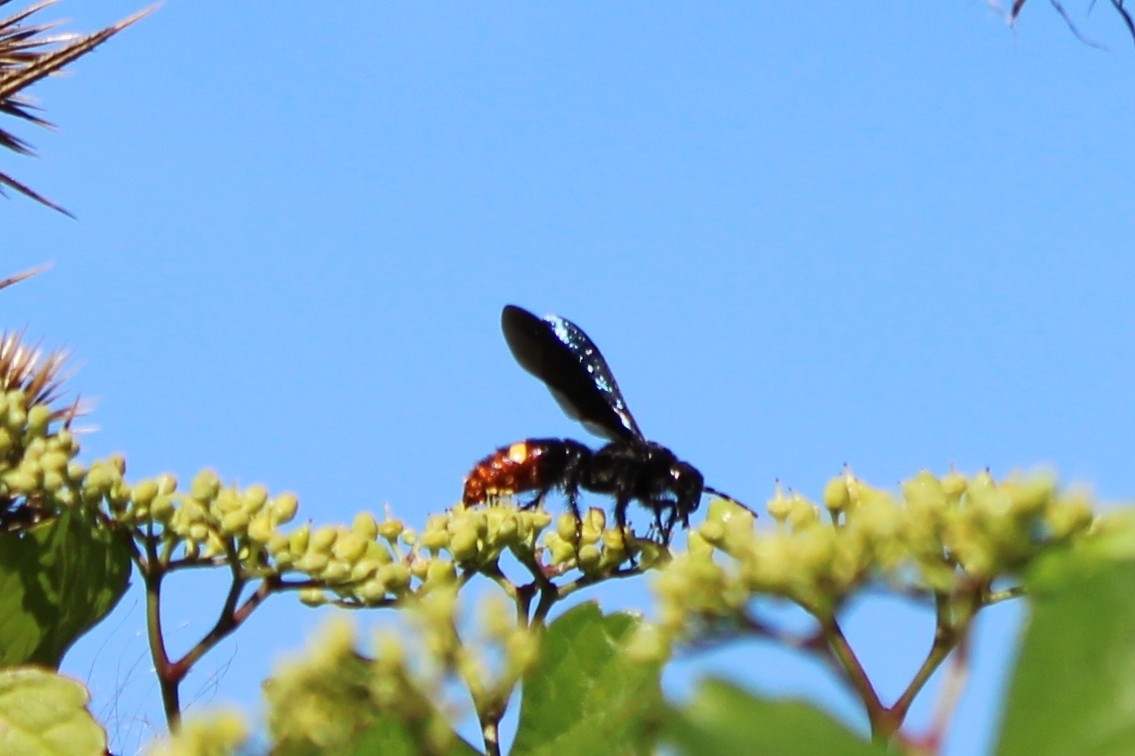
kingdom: Animalia
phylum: Arthropoda
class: Insecta
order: Hymenoptera
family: Scoliidae
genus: Scolia
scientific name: Scolia dubia
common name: Blue-winged scoliid wasp
